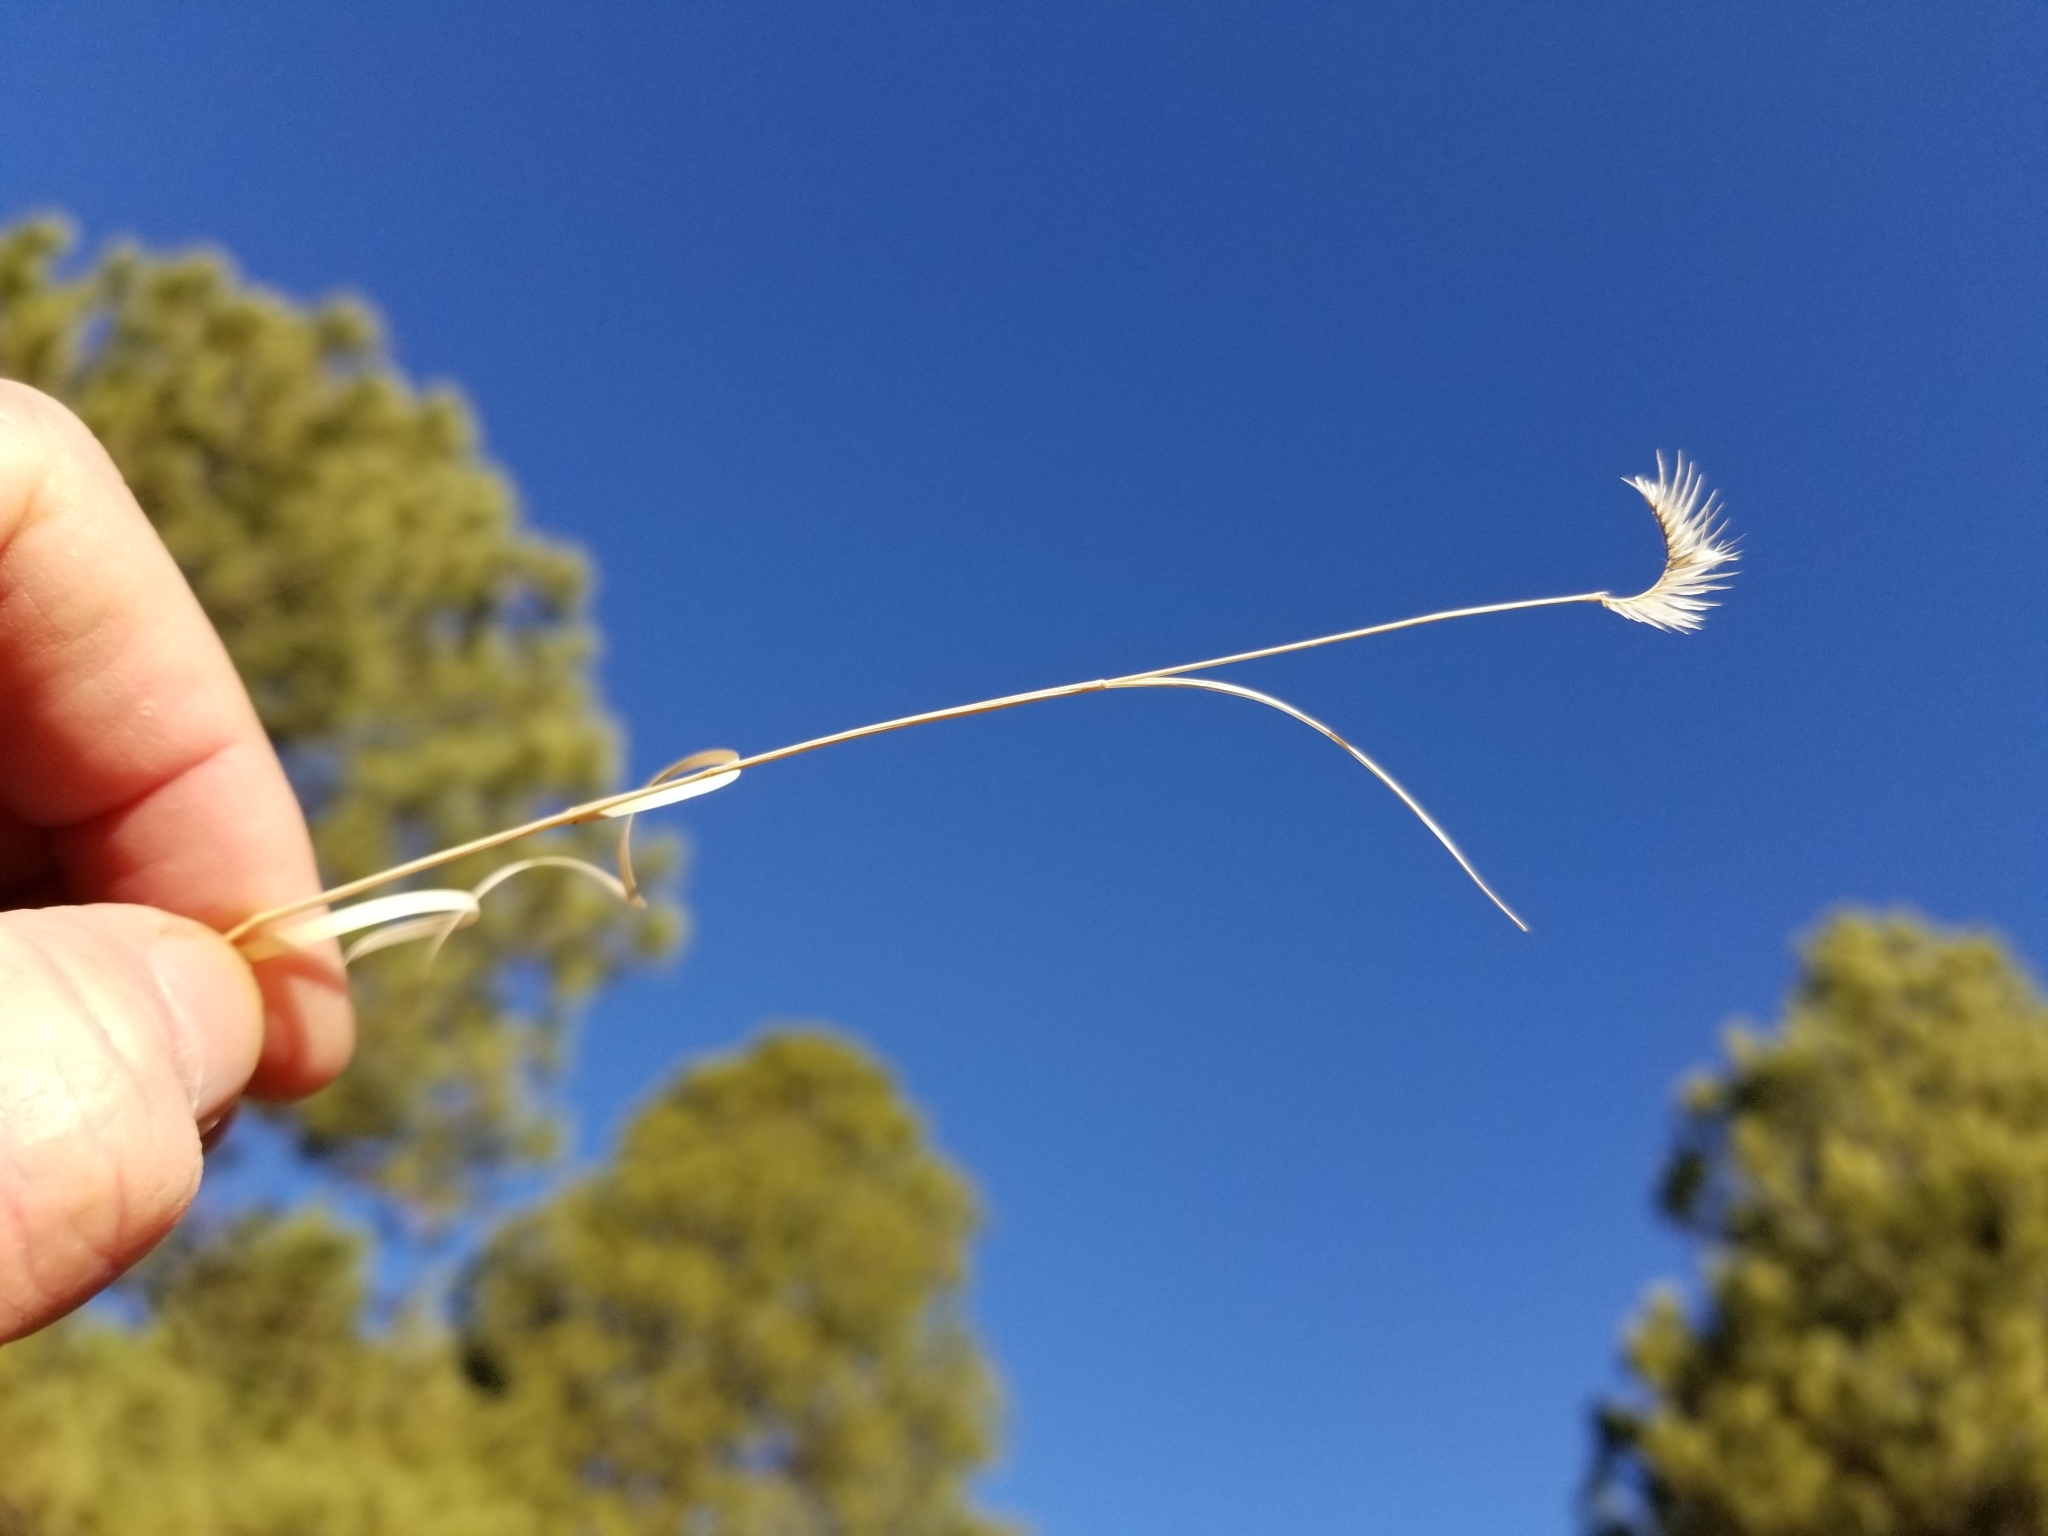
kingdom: Plantae
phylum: Tracheophyta
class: Liliopsida
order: Poales
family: Poaceae
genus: Bouteloua
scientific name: Bouteloua gracilis
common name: Blue grama
